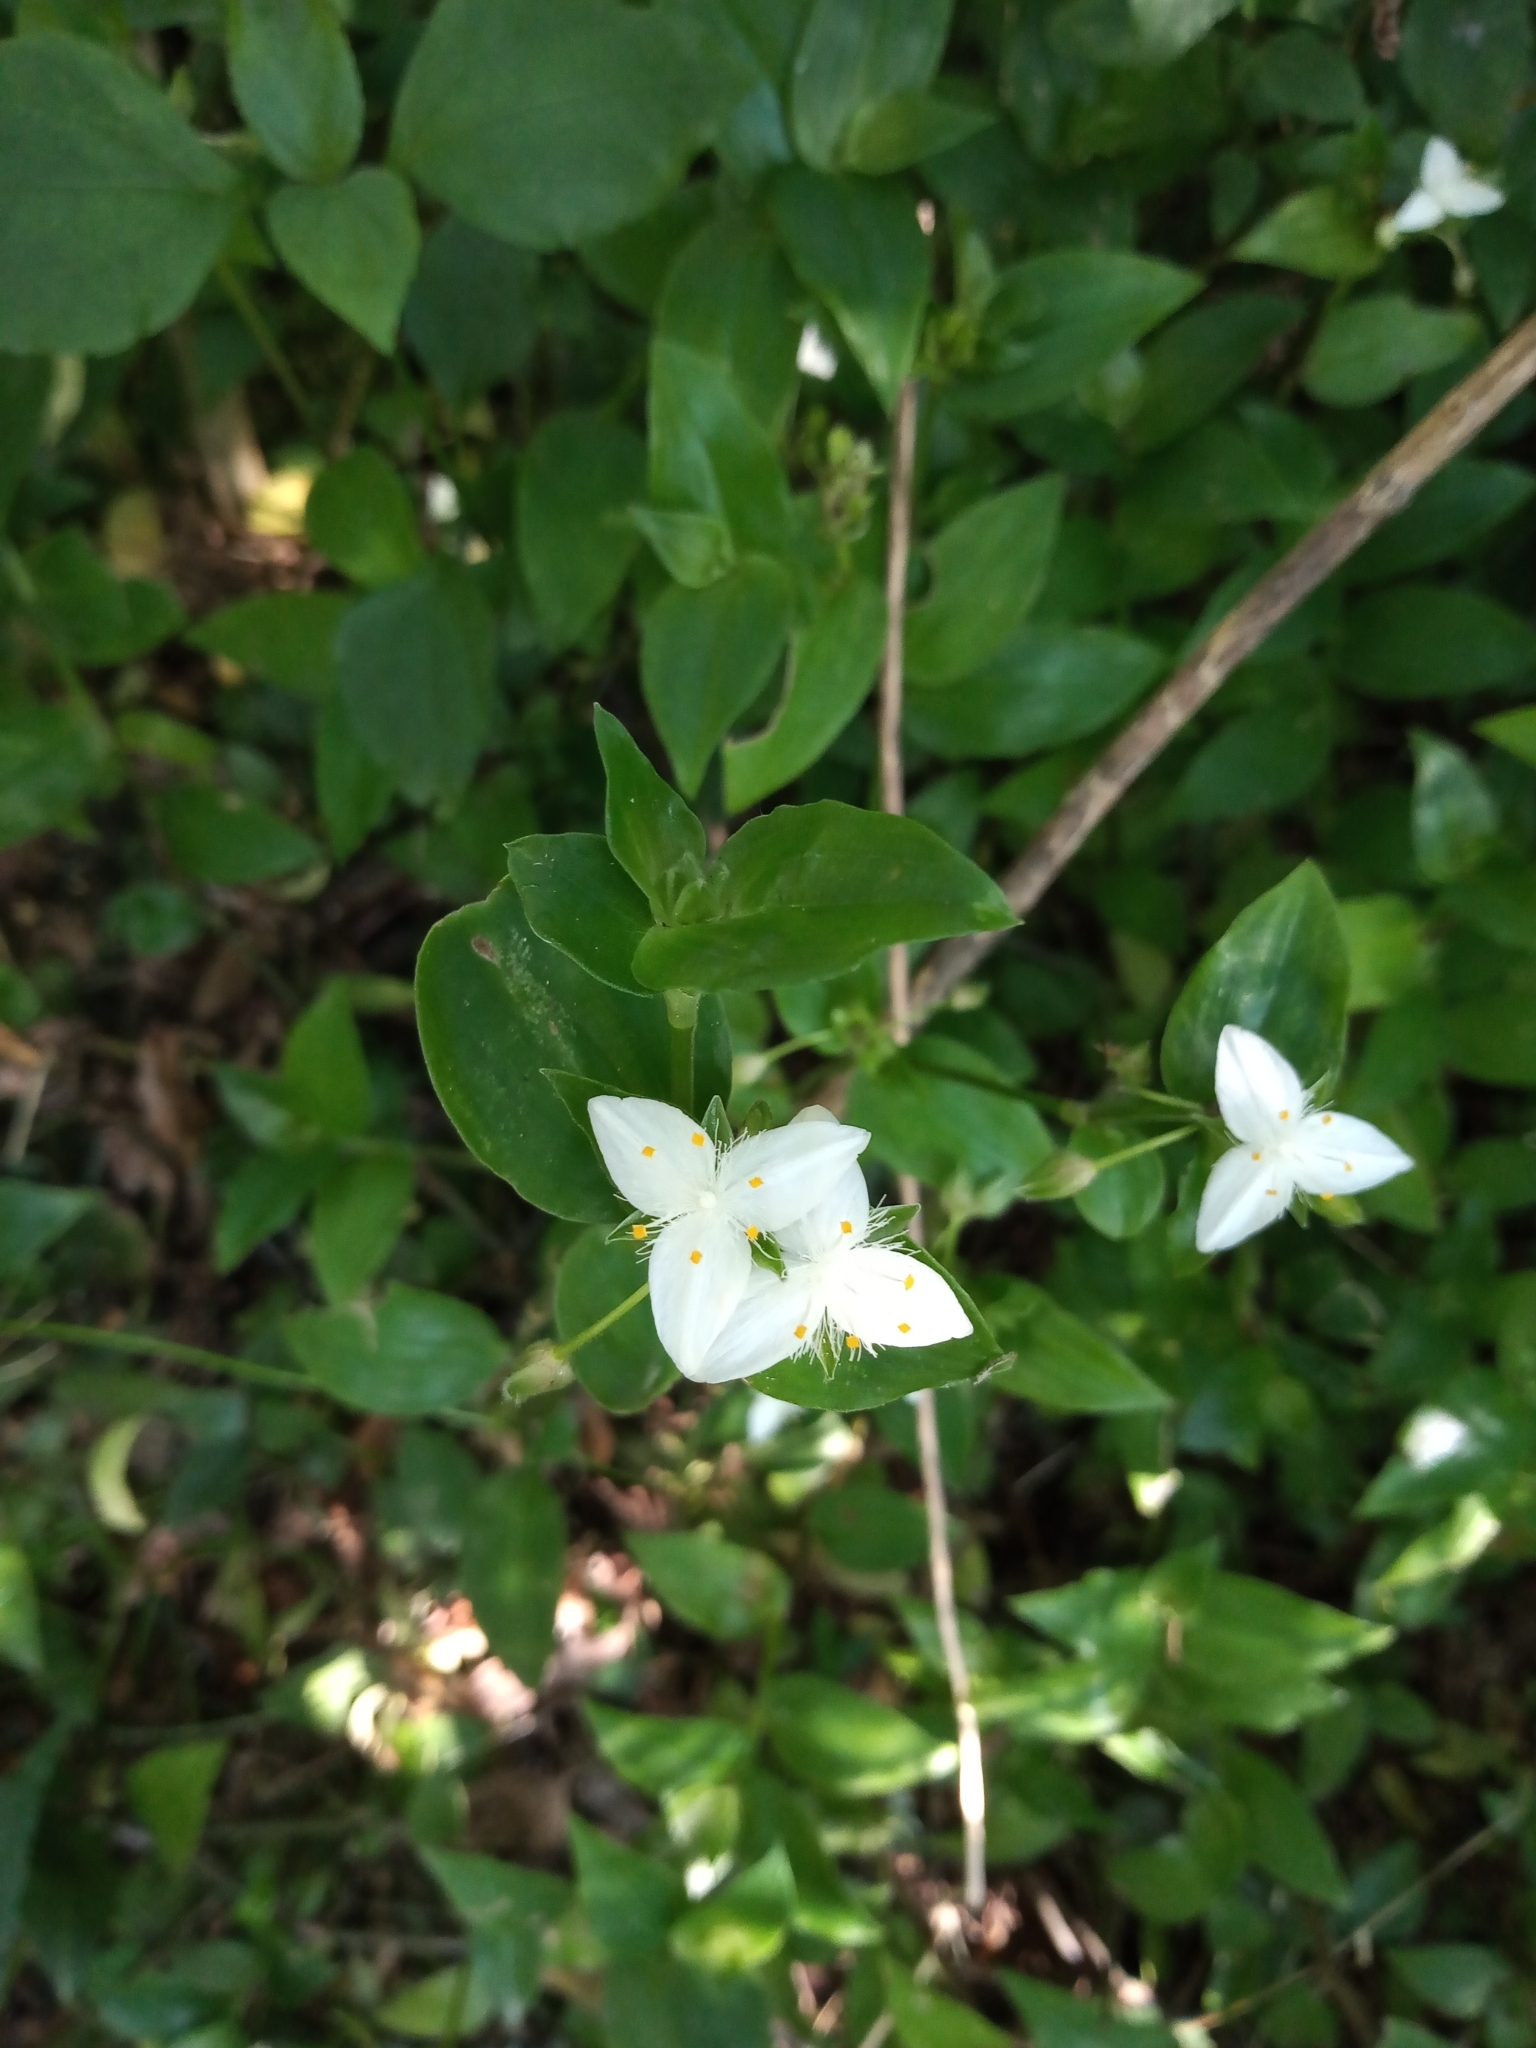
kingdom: Plantae
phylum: Tracheophyta
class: Liliopsida
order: Commelinales
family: Commelinaceae
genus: Tradescantia
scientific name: Tradescantia fluminensis
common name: Wandering-jew
